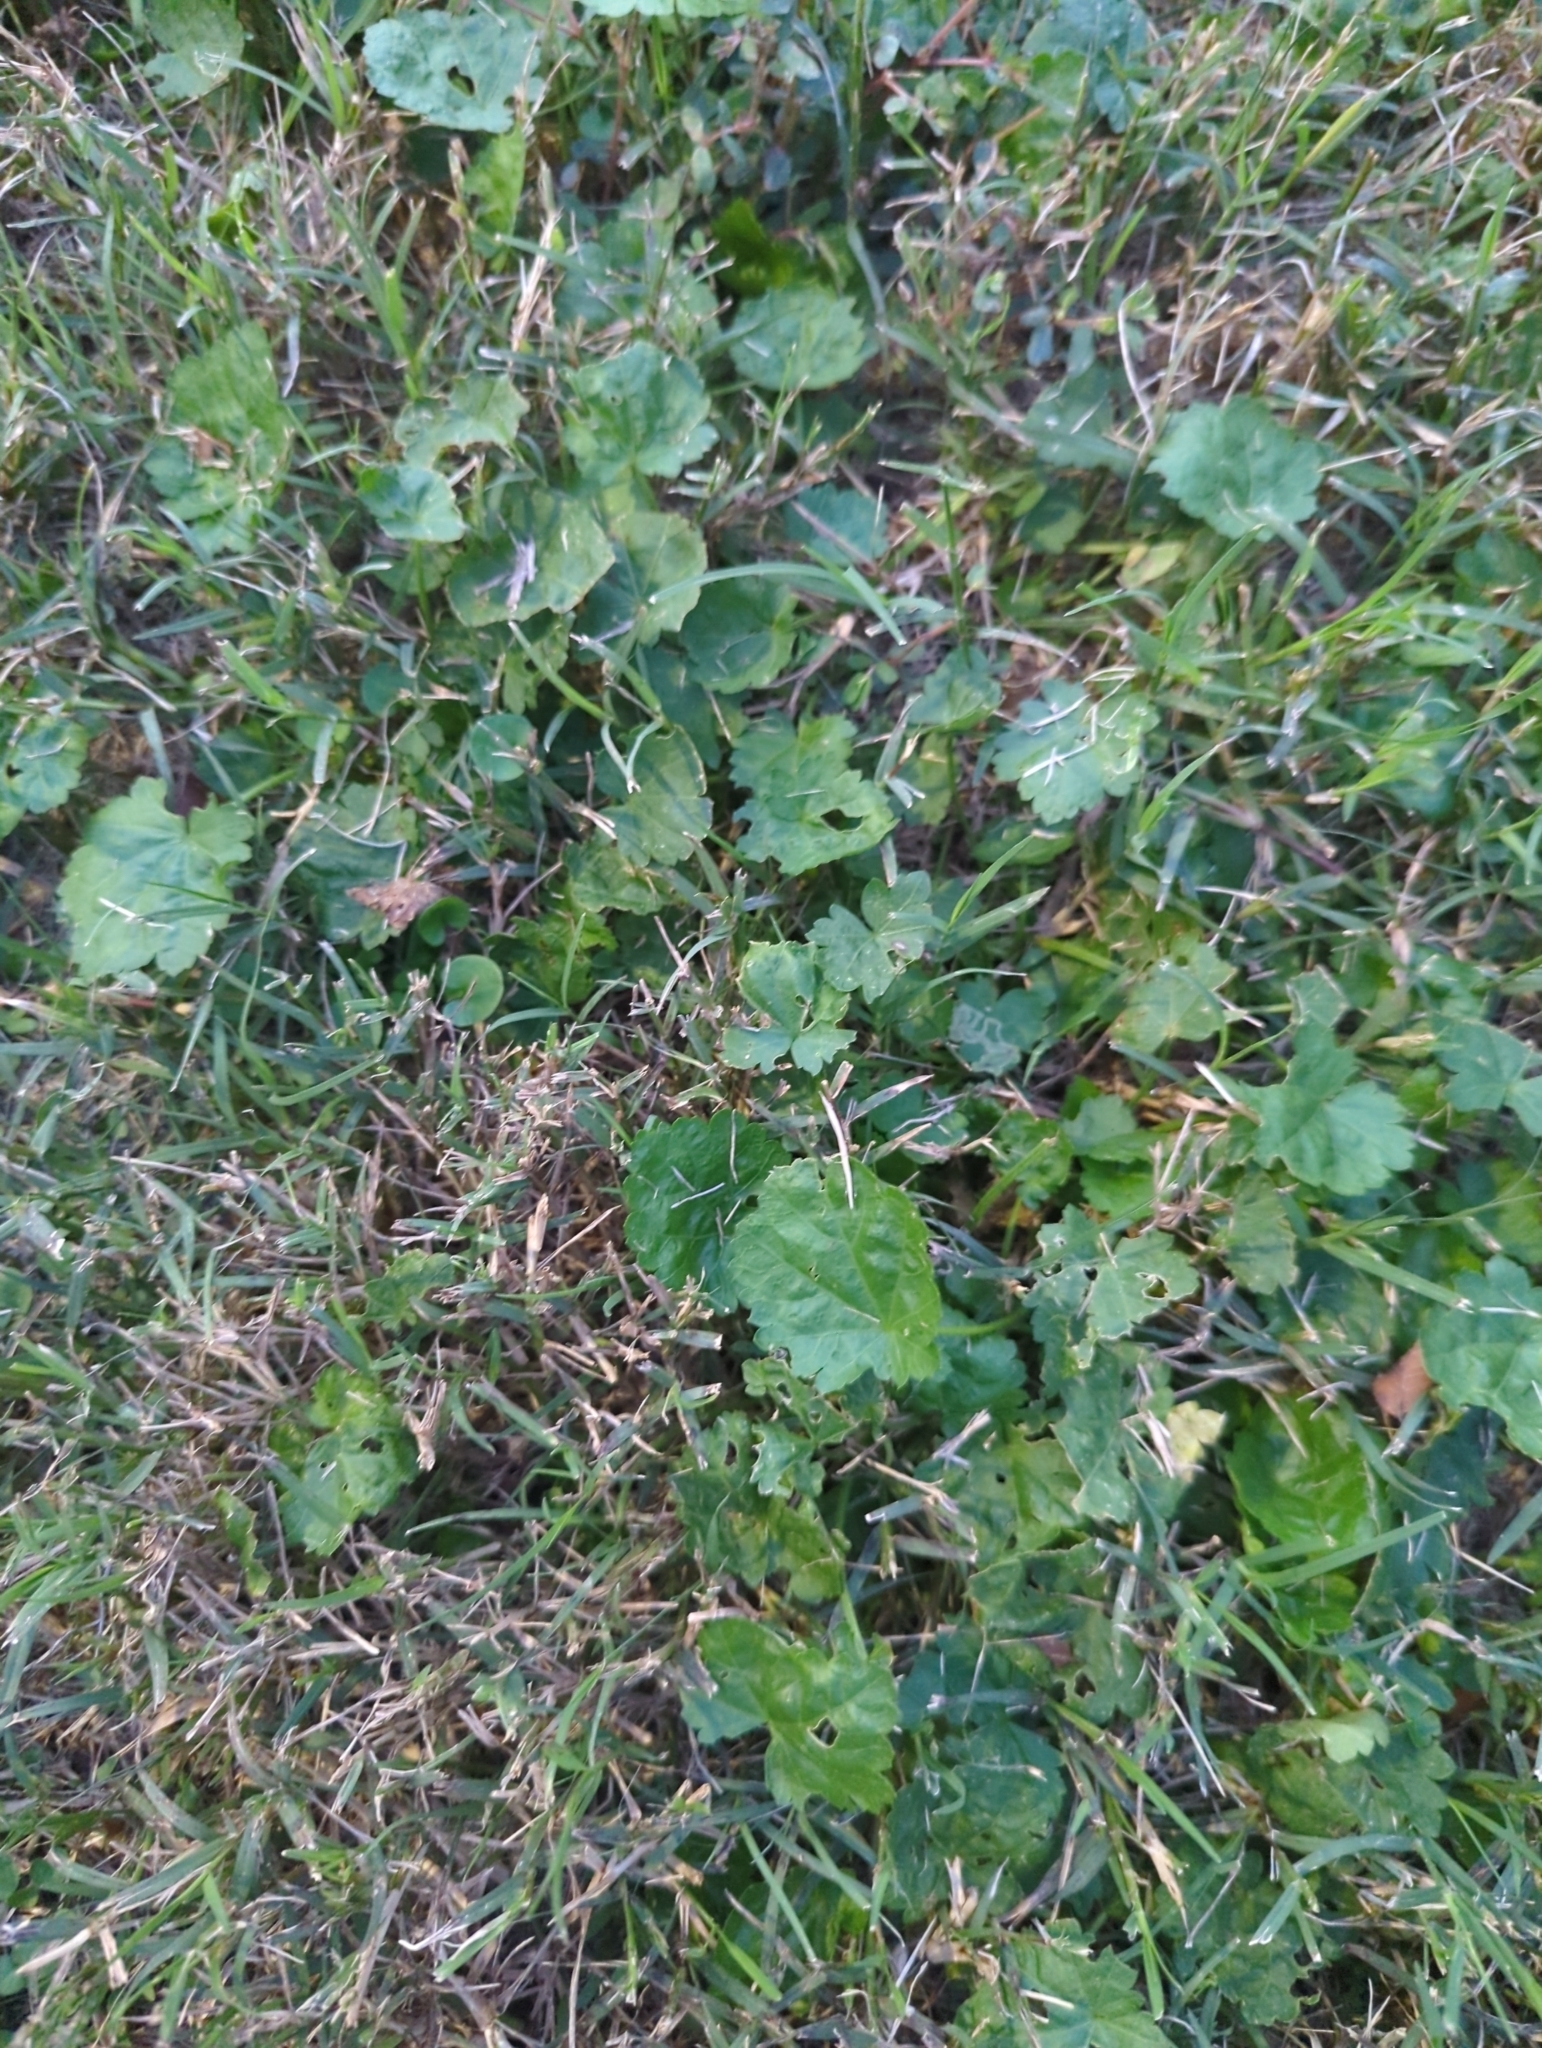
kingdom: Plantae
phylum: Tracheophyta
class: Magnoliopsida
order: Malvales
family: Malvaceae
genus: Modiola
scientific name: Modiola caroliniana
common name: Carolina bristlemallow
